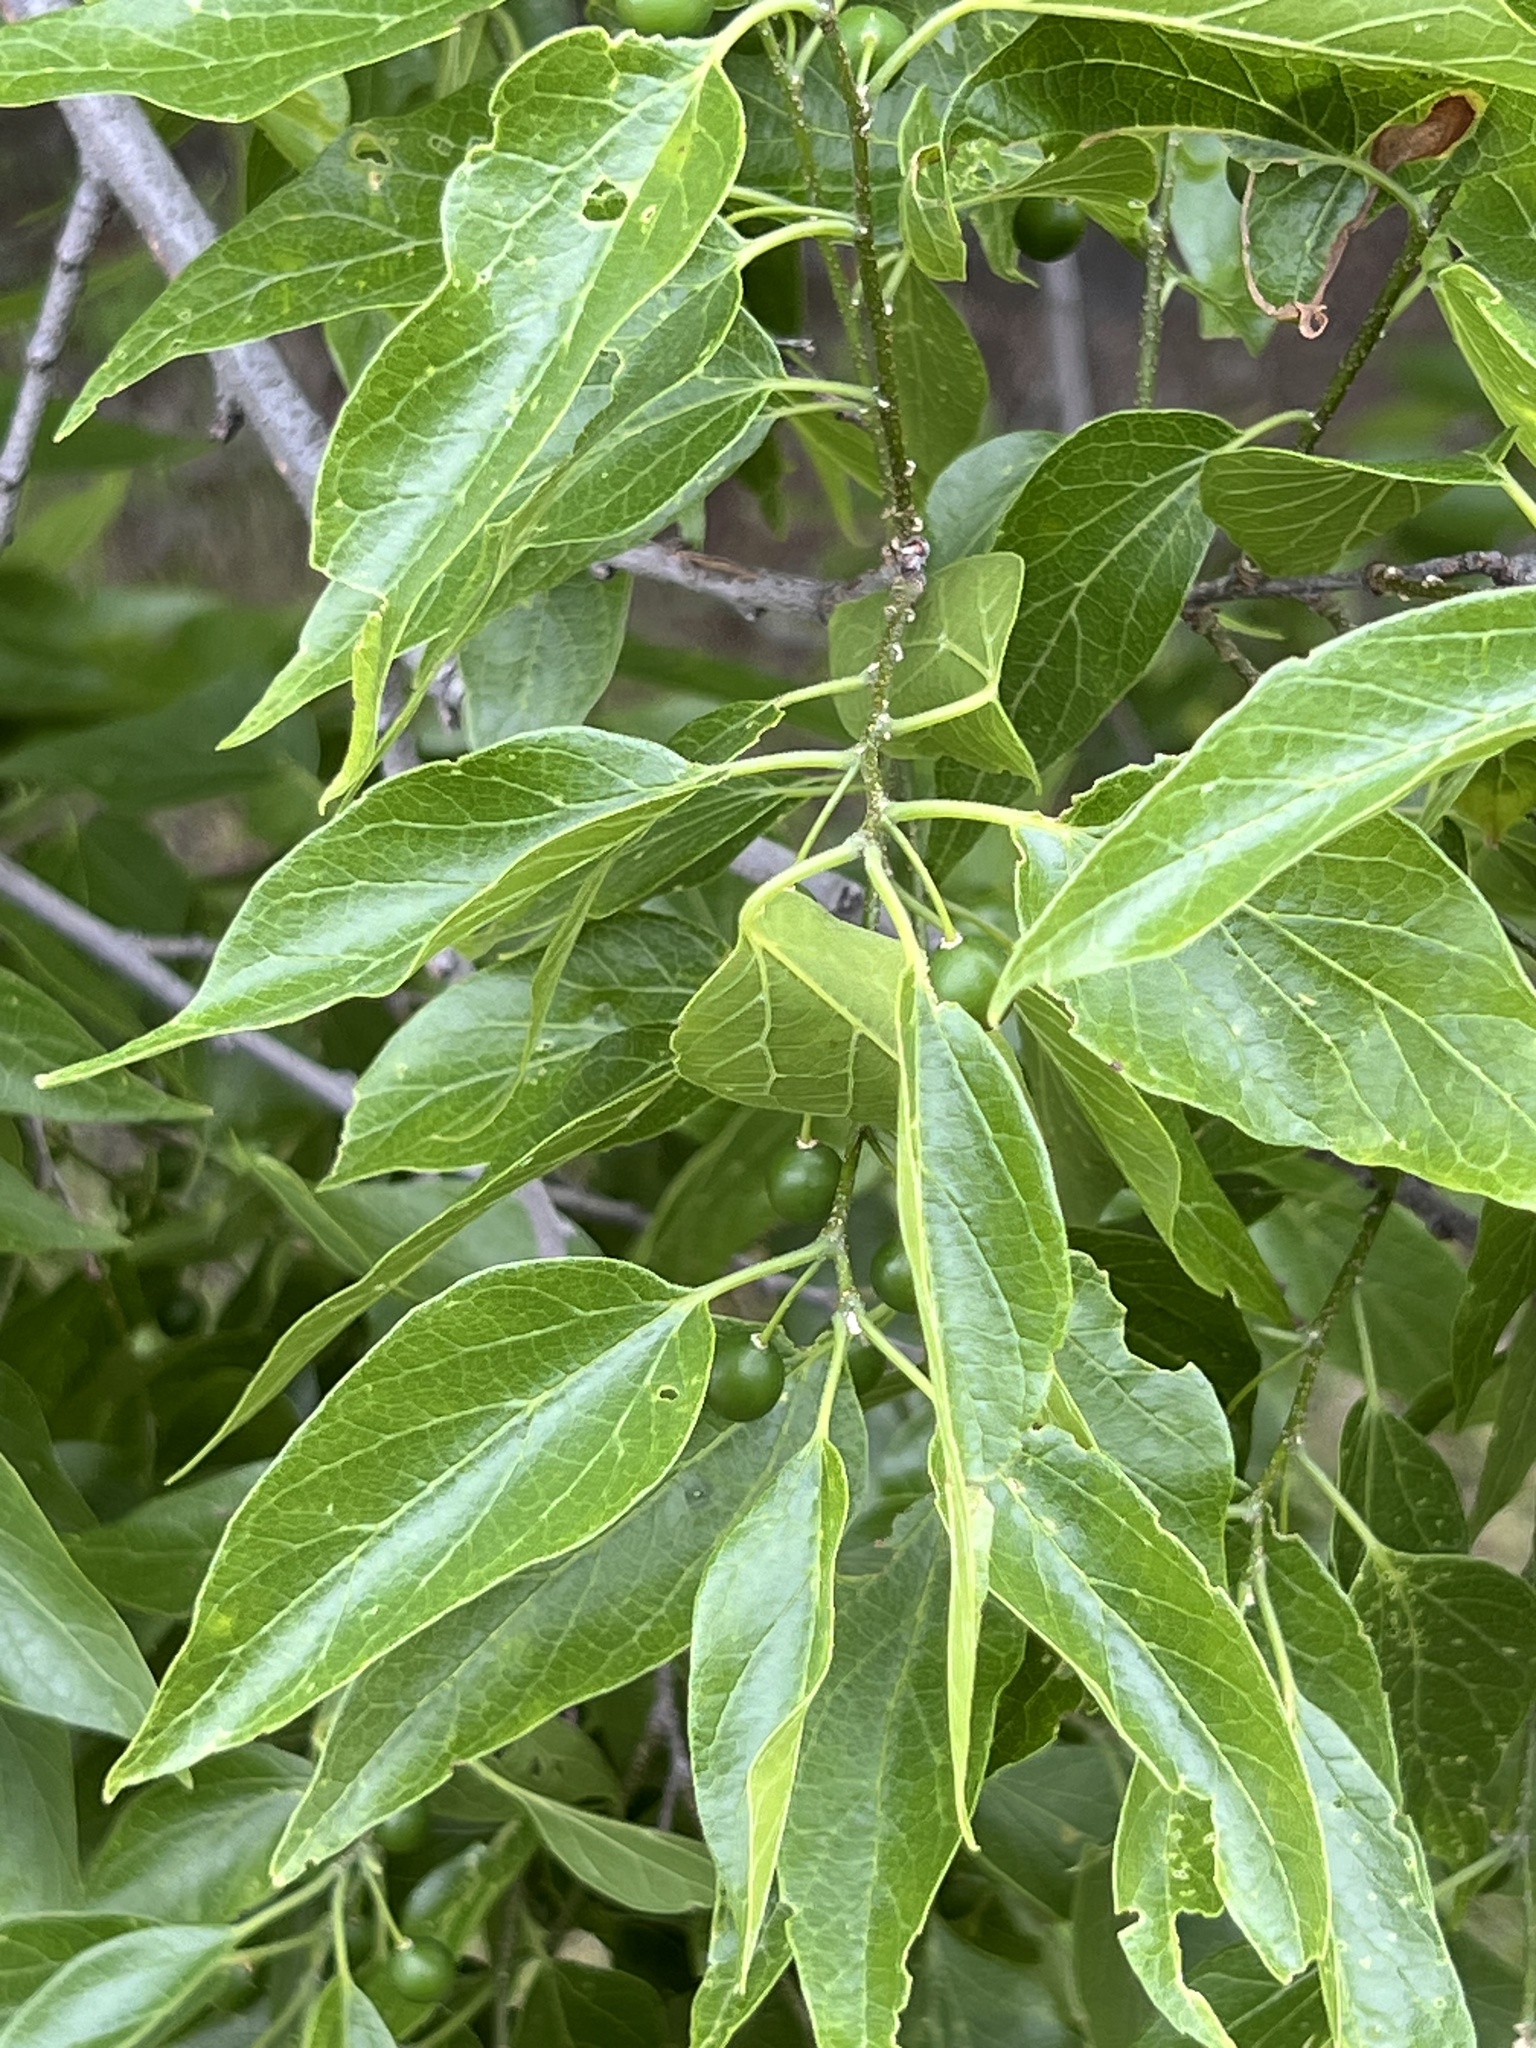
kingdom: Plantae
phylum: Tracheophyta
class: Magnoliopsida
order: Rosales
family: Cannabaceae
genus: Celtis
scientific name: Celtis laevigata
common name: Sugarberry
